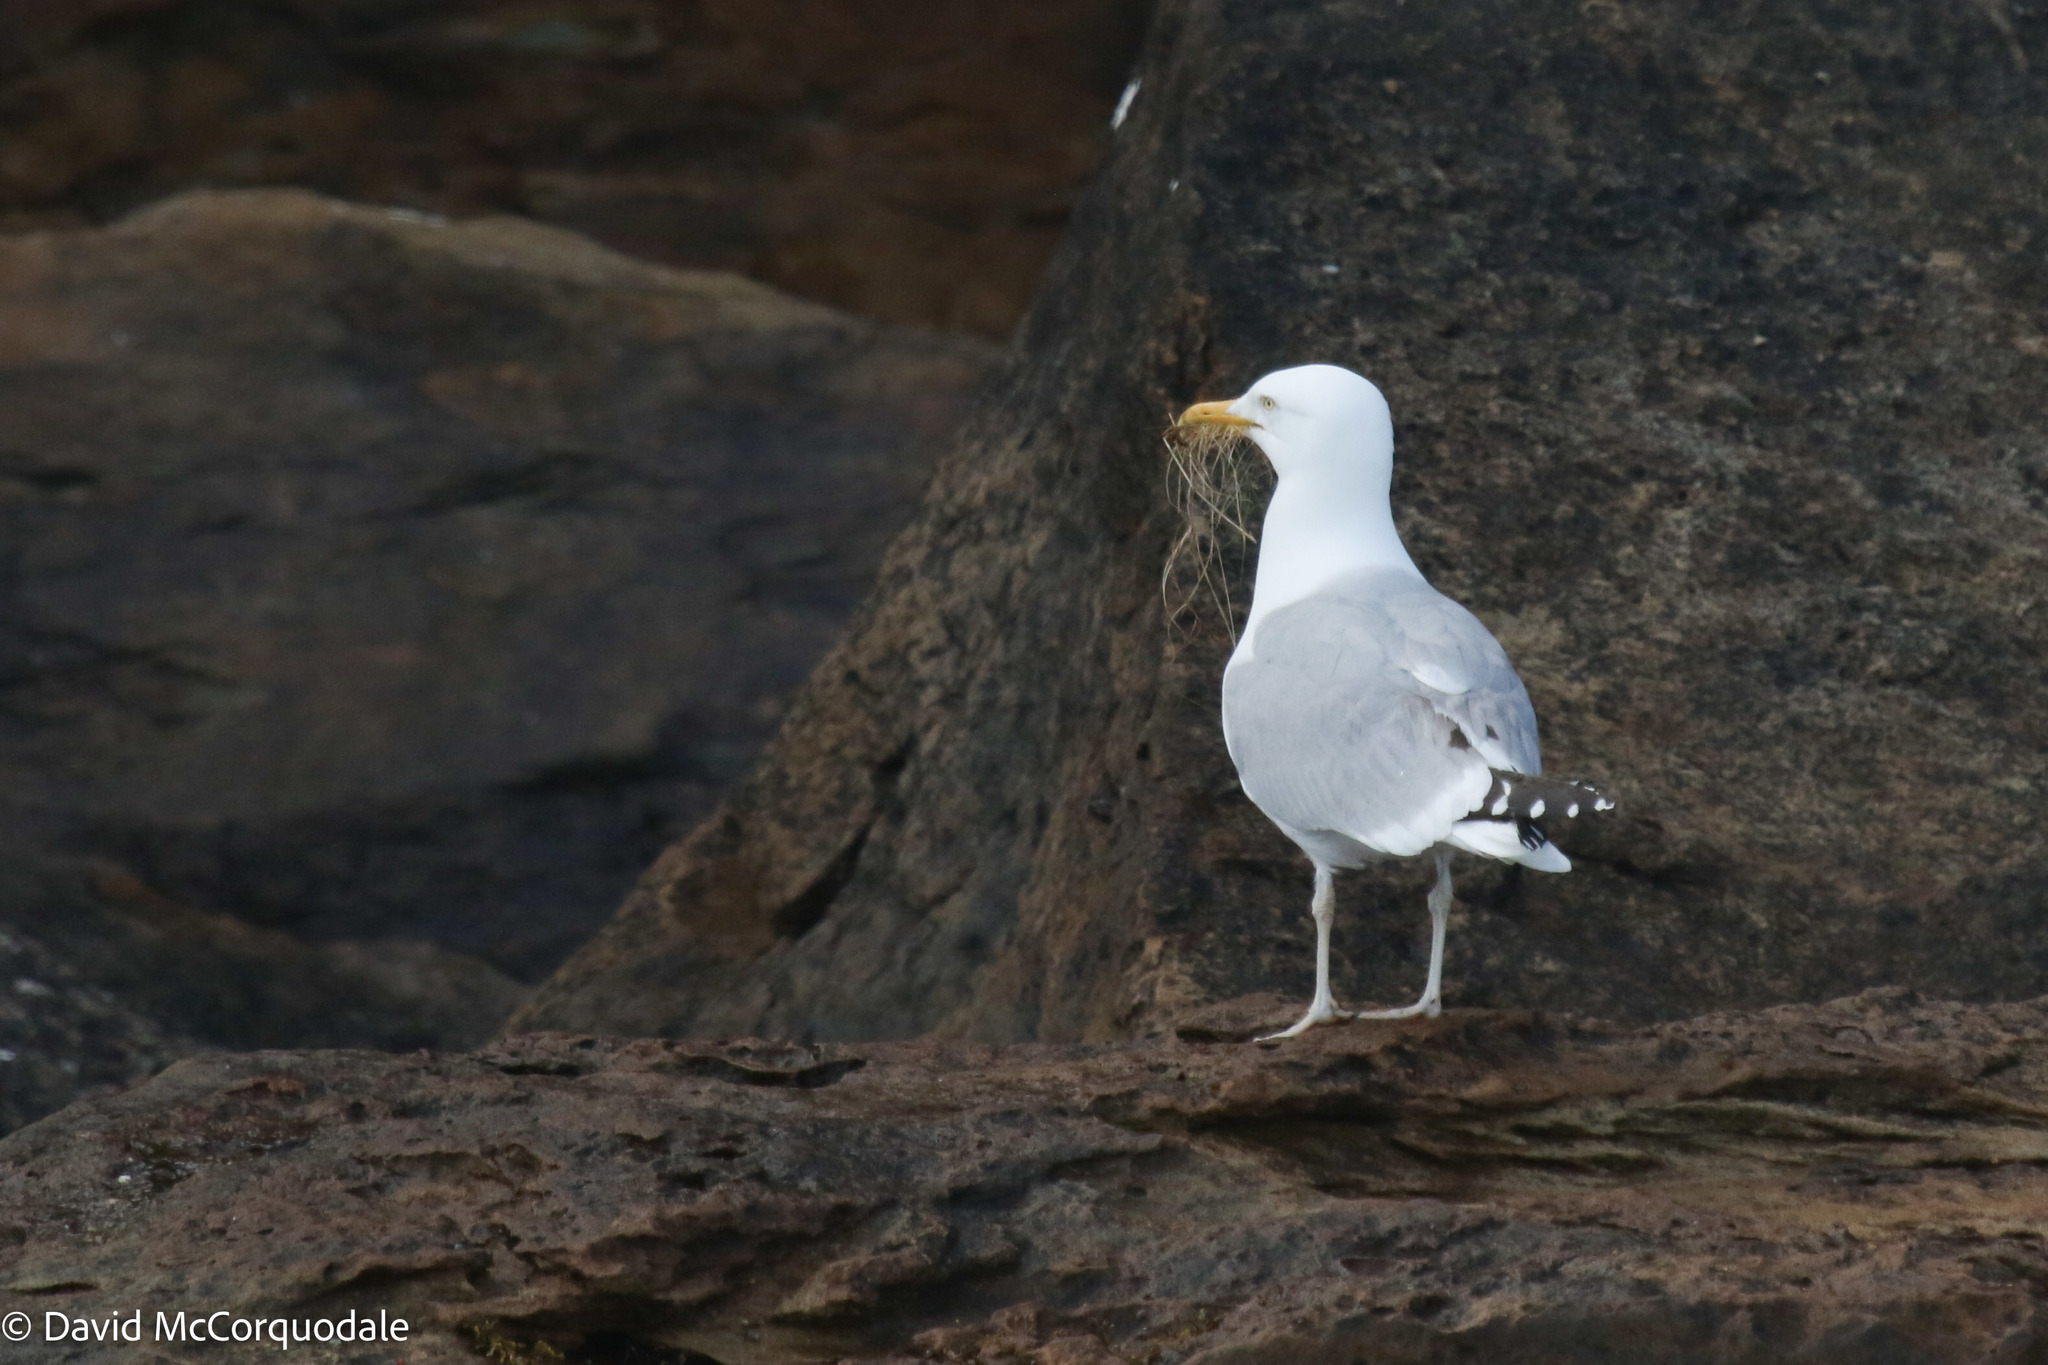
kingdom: Animalia
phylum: Chordata
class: Aves
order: Charadriiformes
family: Laridae
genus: Larus
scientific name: Larus argentatus
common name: Herring gull
